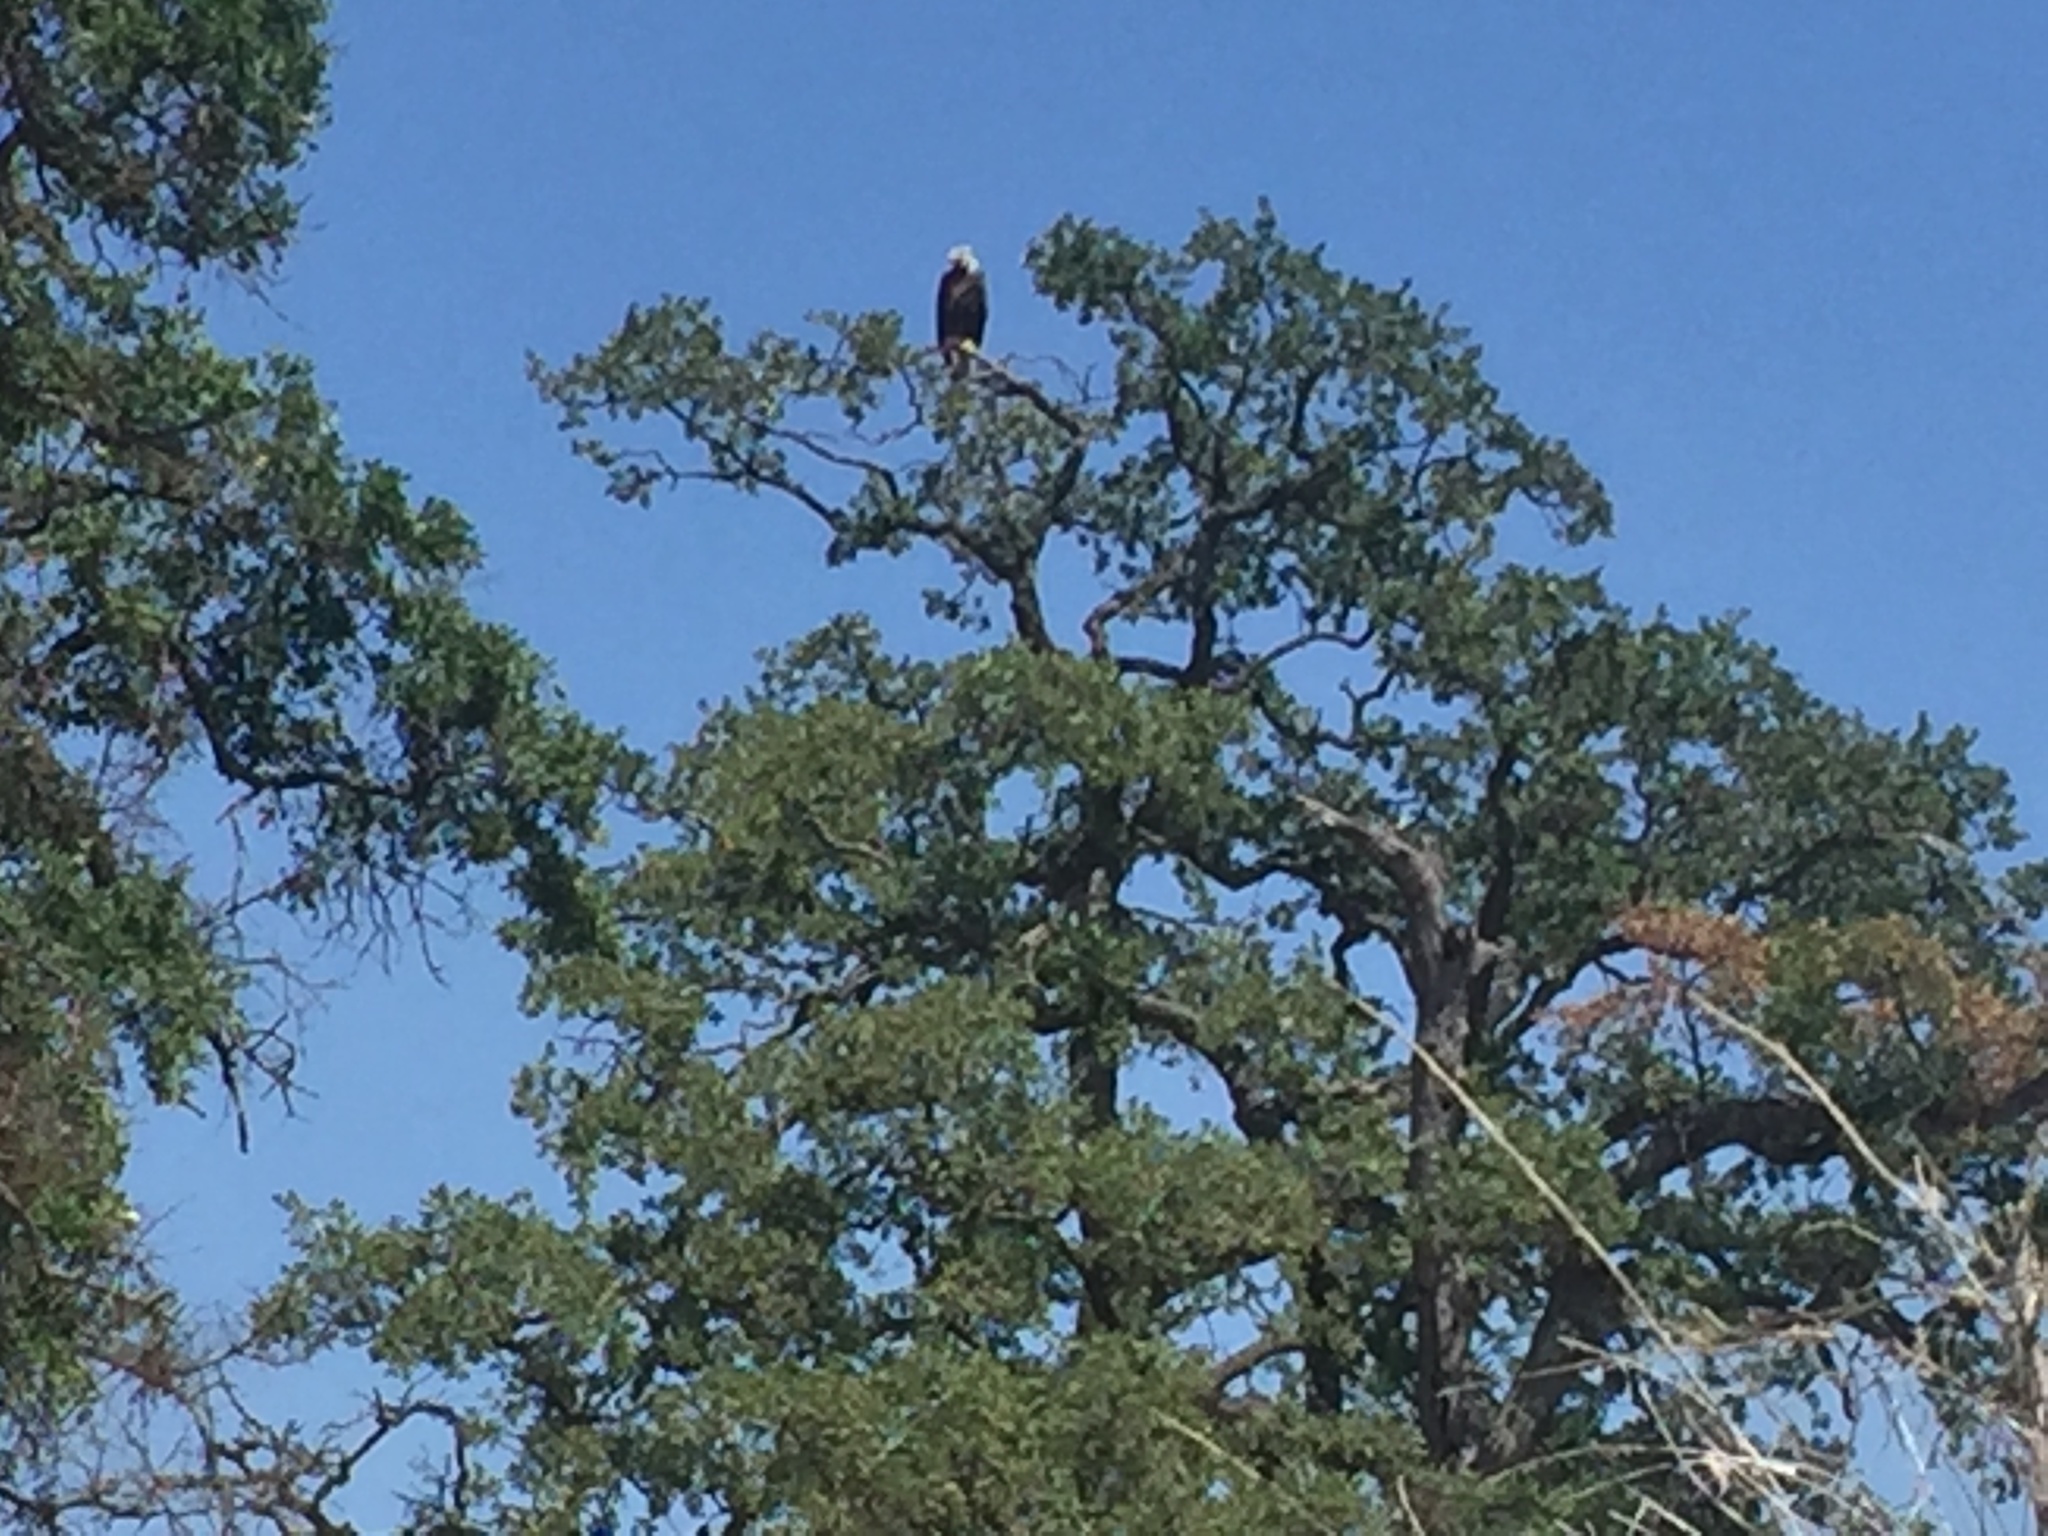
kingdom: Animalia
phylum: Chordata
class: Aves
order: Accipitriformes
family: Accipitridae
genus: Haliaeetus
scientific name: Haliaeetus leucocephalus
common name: Bald eagle
